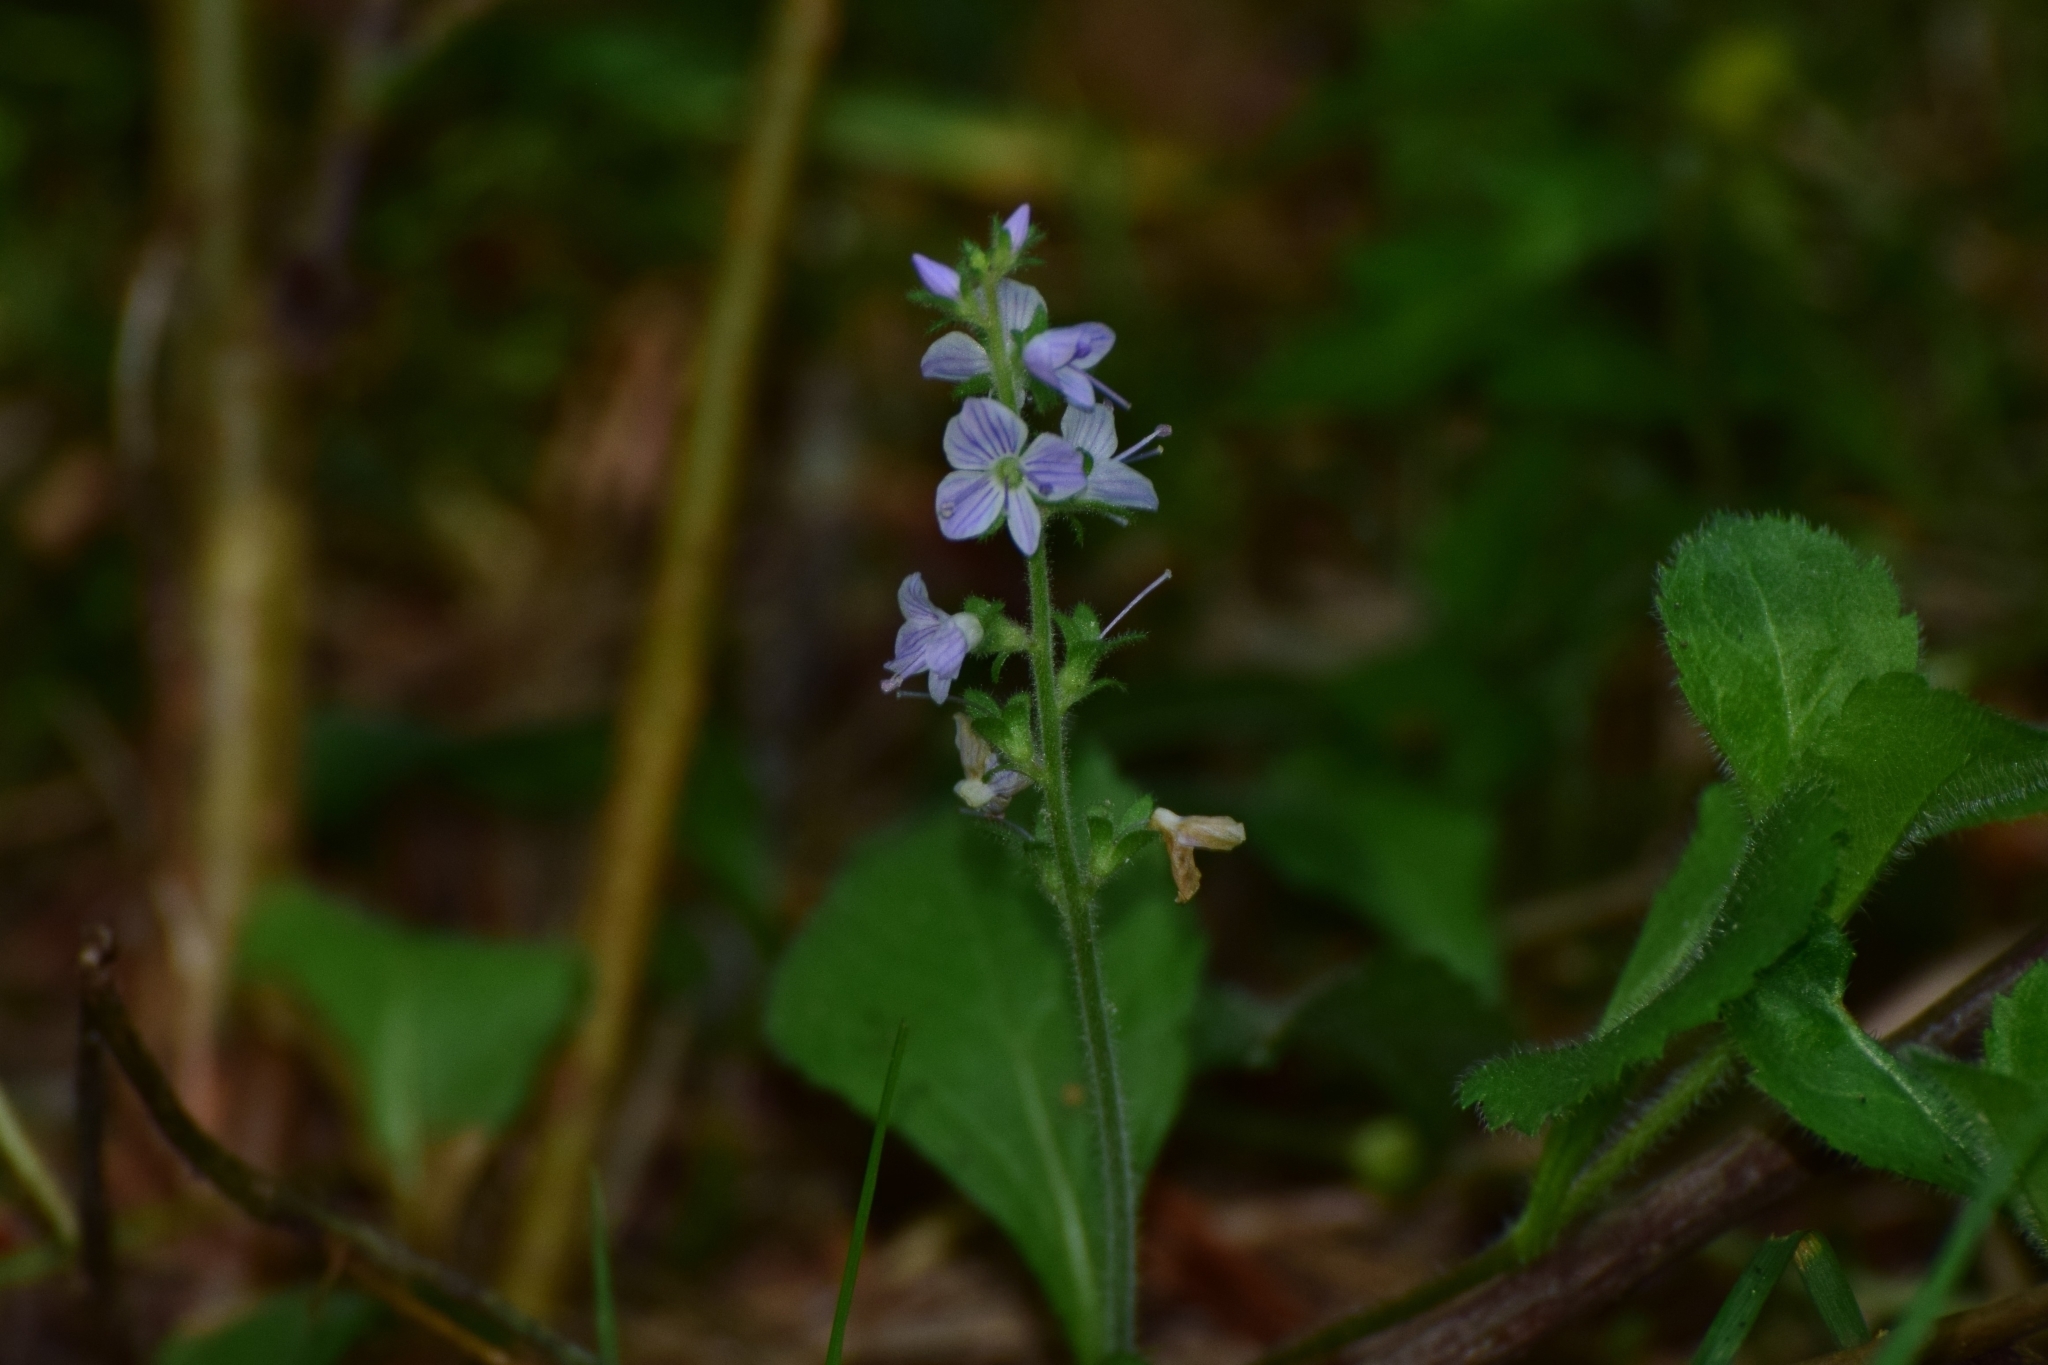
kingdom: Plantae
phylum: Tracheophyta
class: Magnoliopsida
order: Lamiales
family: Plantaginaceae
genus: Veronica
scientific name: Veronica officinalis
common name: Common speedwell
